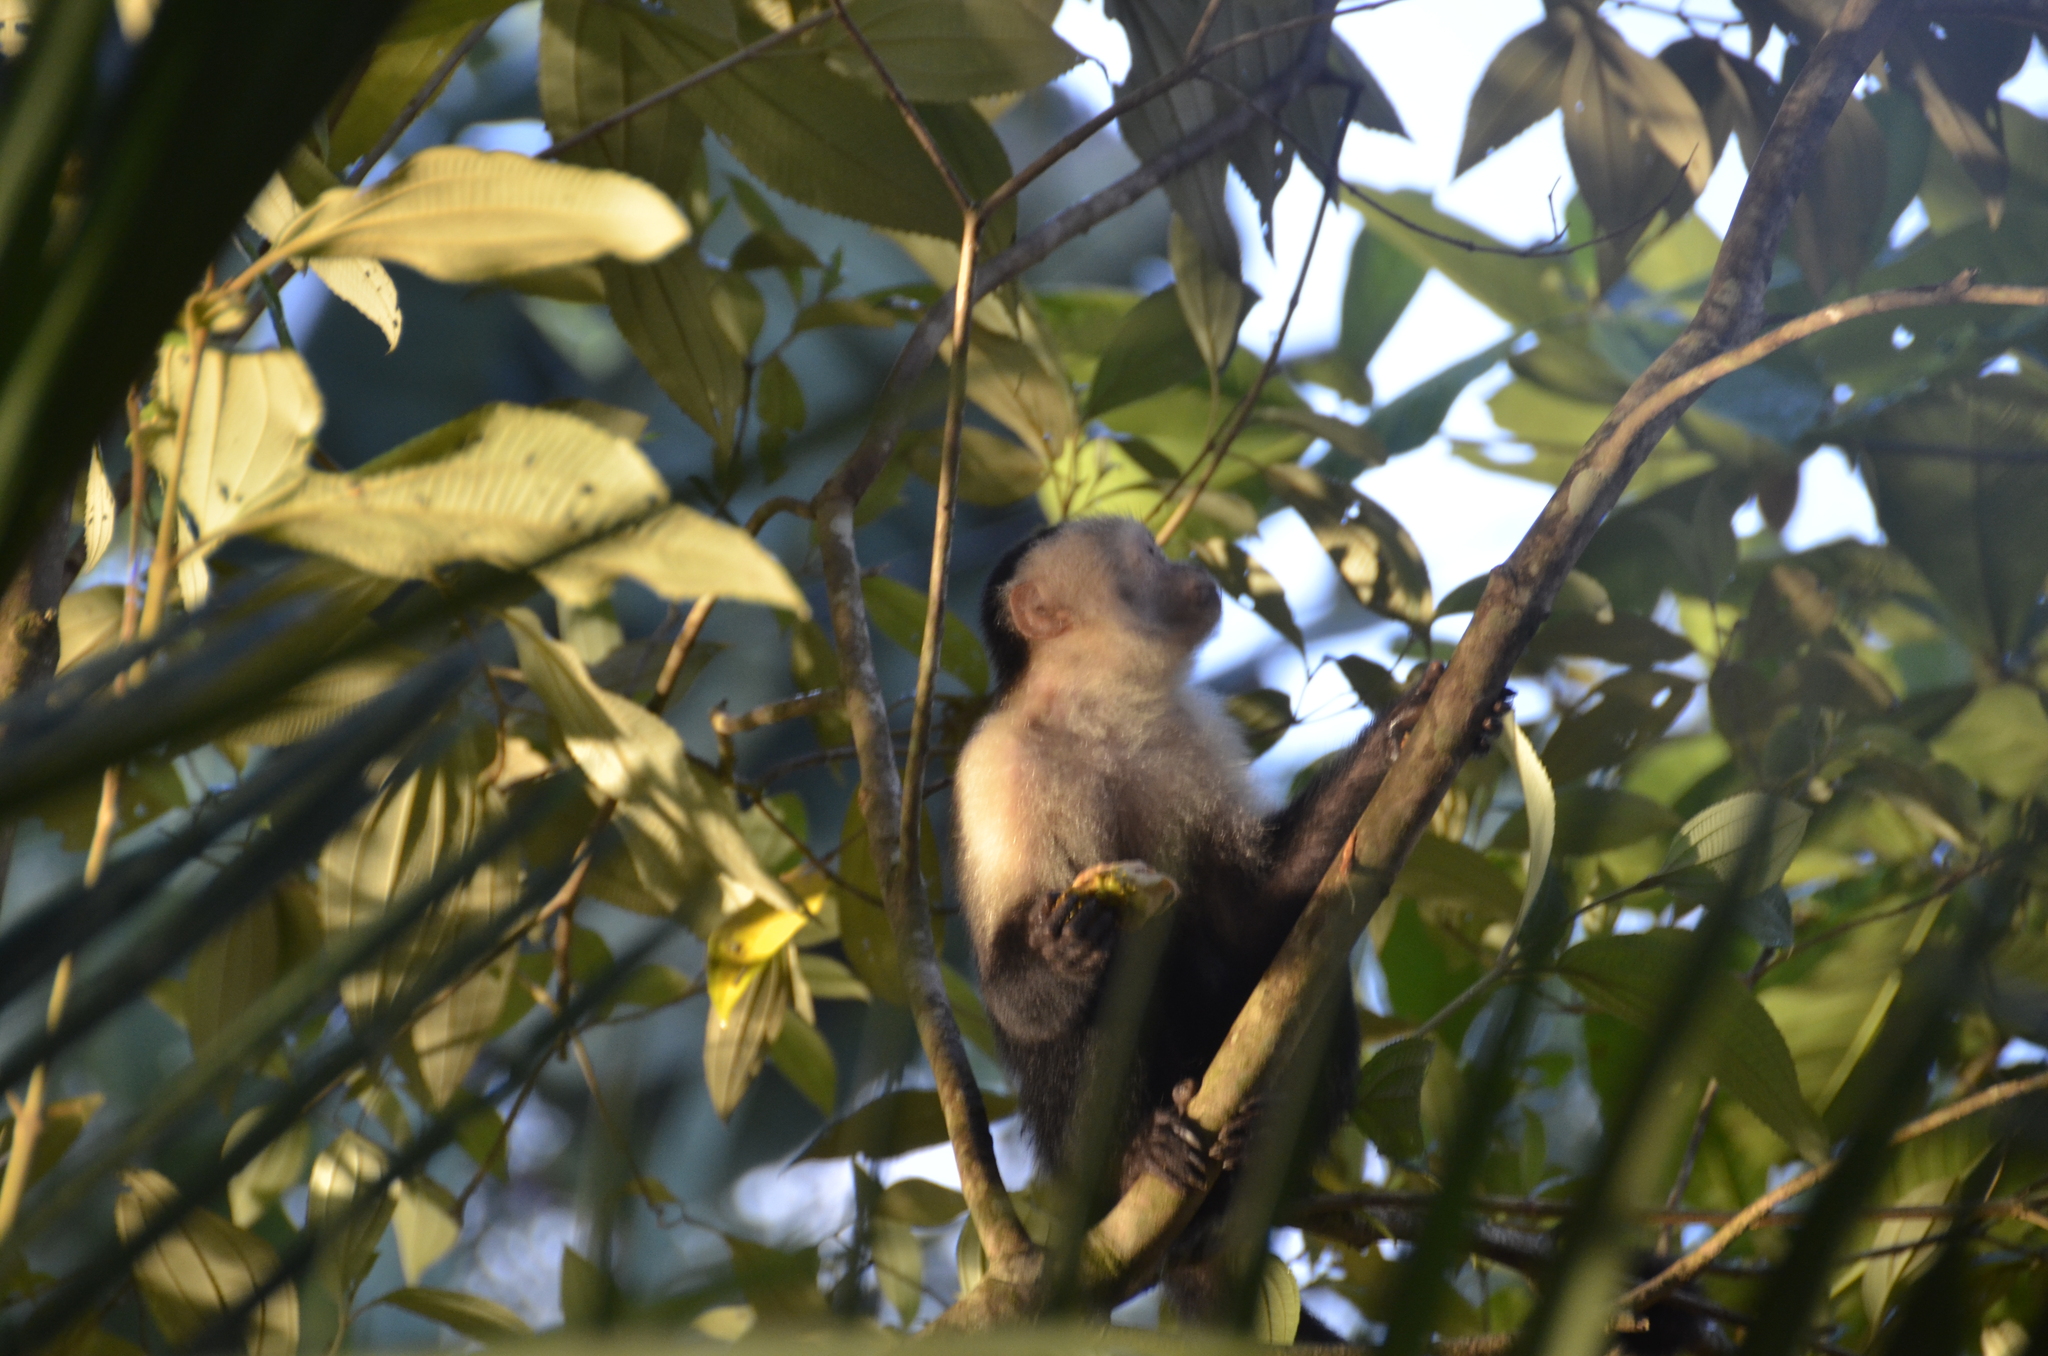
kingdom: Animalia
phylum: Chordata
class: Mammalia
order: Primates
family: Cebidae
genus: Cebus
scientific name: Cebus imitator
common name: Panamanian white-faced capuchin
